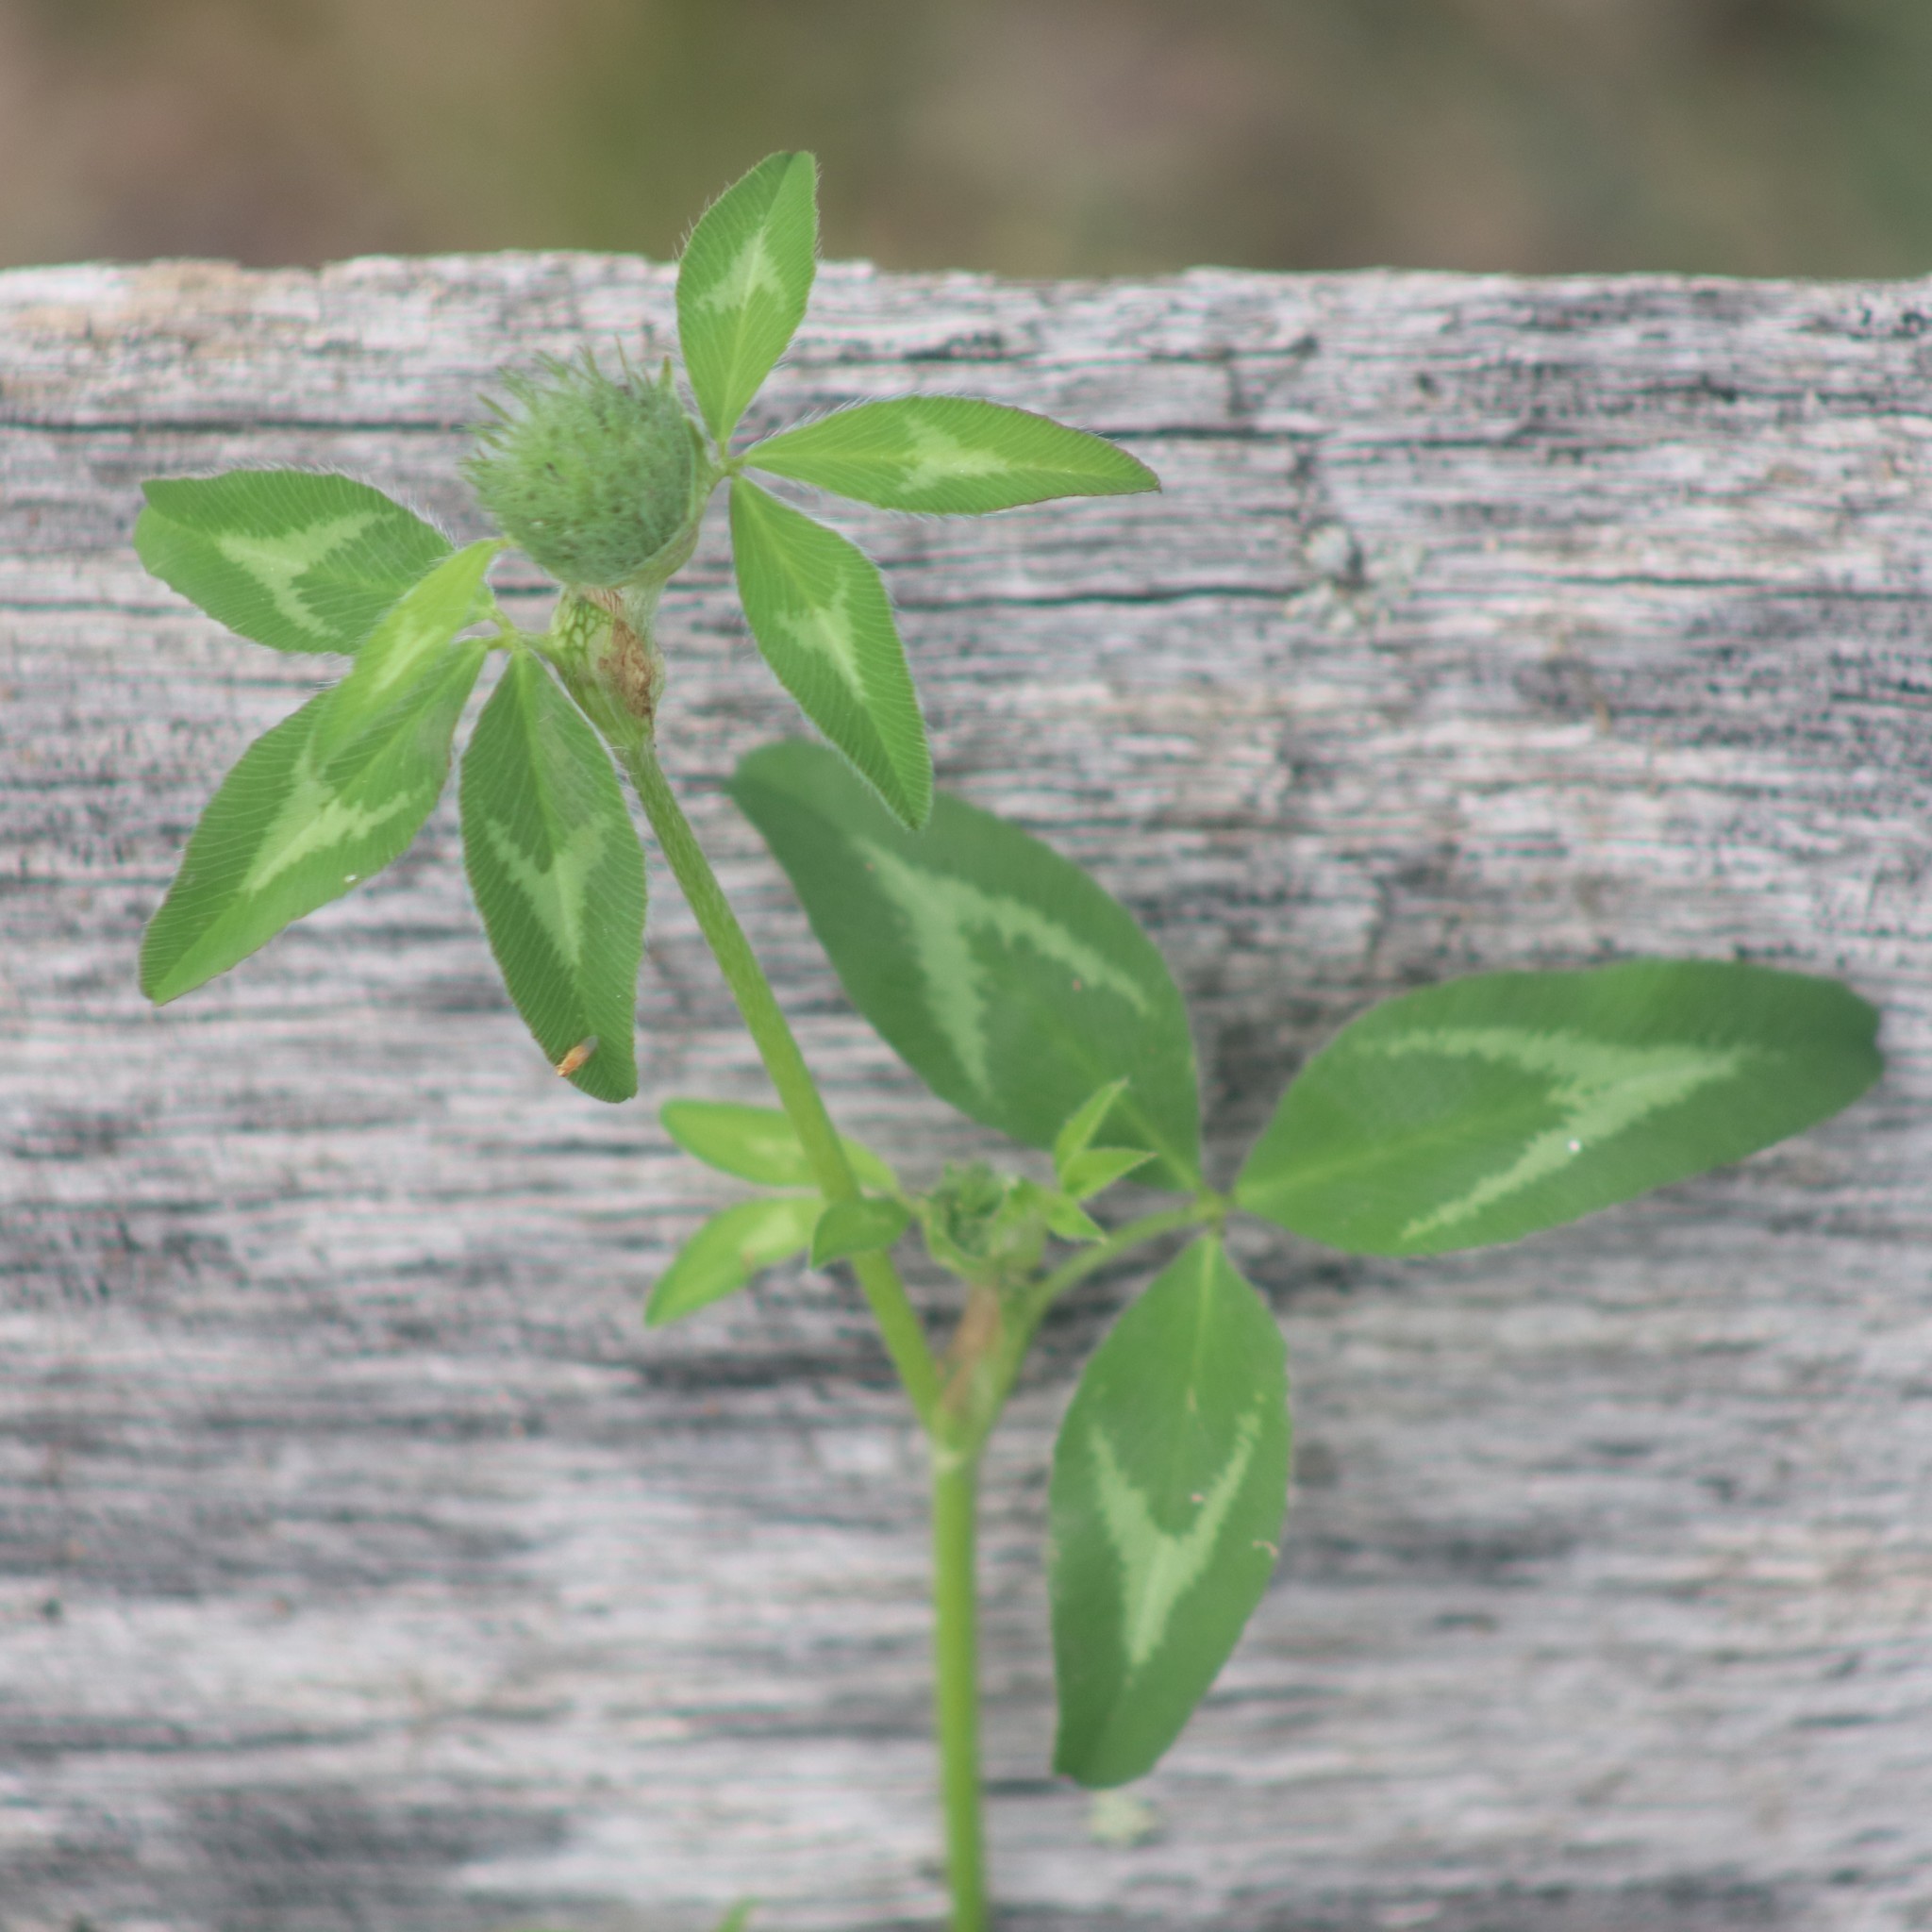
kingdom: Plantae
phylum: Tracheophyta
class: Magnoliopsida
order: Fabales
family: Fabaceae
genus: Trifolium
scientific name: Trifolium pratense
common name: Red clover
